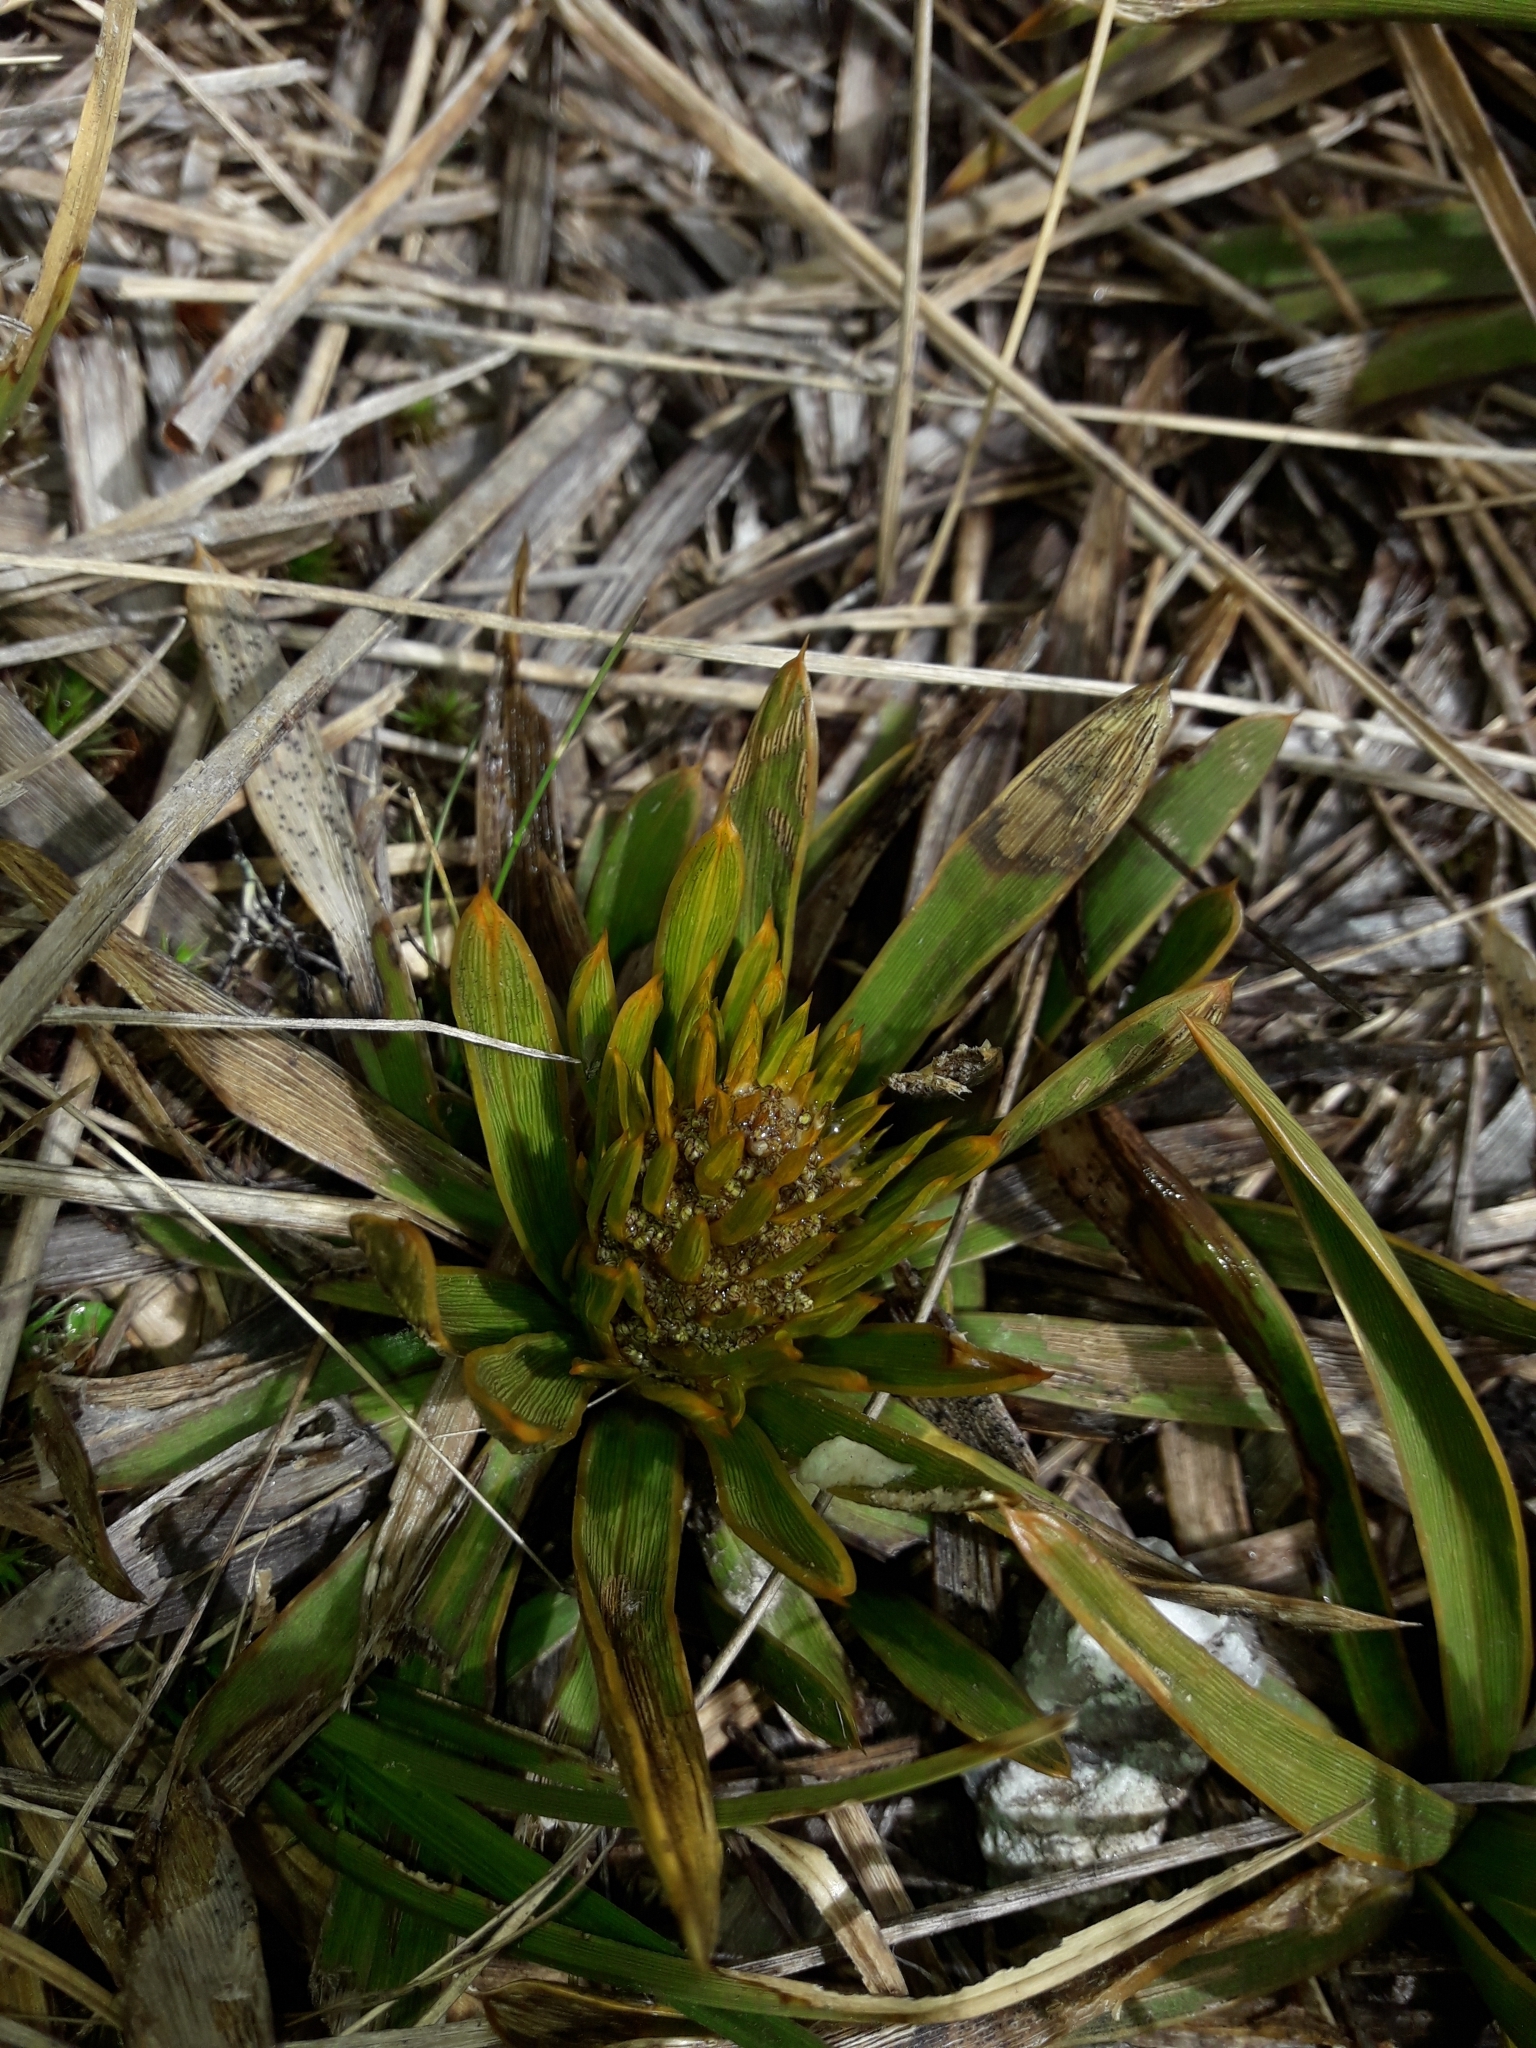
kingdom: Plantae
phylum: Tracheophyta
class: Magnoliopsida
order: Apiales
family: Apiaceae
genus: Aciphylla
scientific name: Aciphylla kirkii
